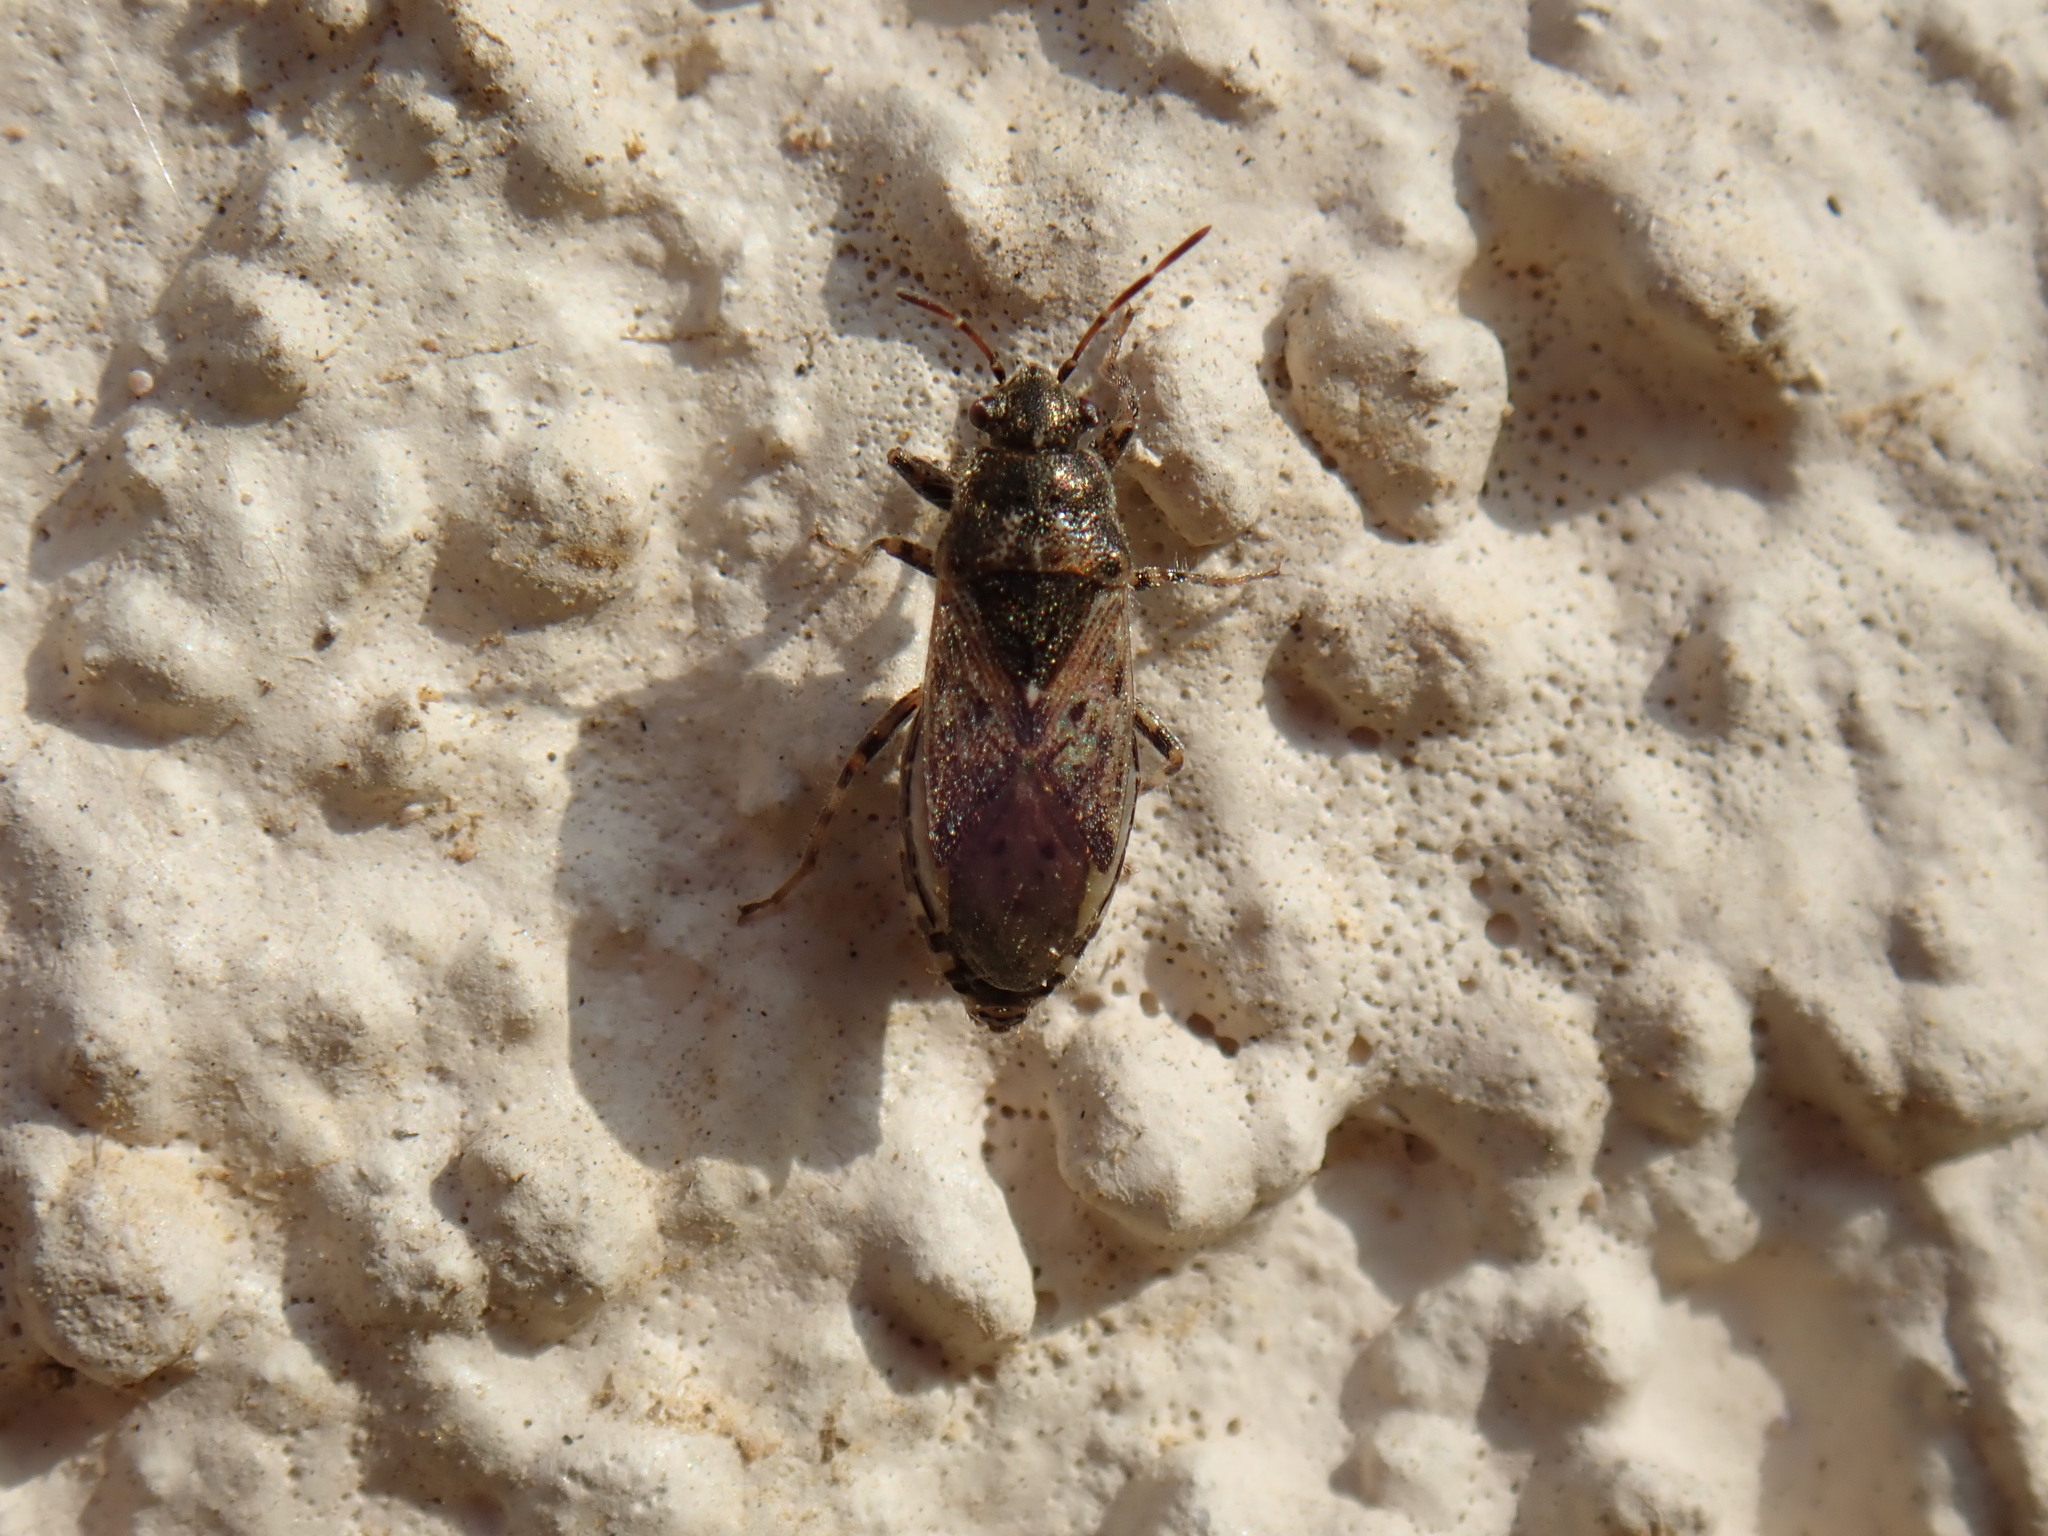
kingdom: Animalia
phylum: Arthropoda
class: Insecta
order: Hemiptera
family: Heterogastridae
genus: Heterogaster
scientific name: Heterogaster urticae
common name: Seed bug
